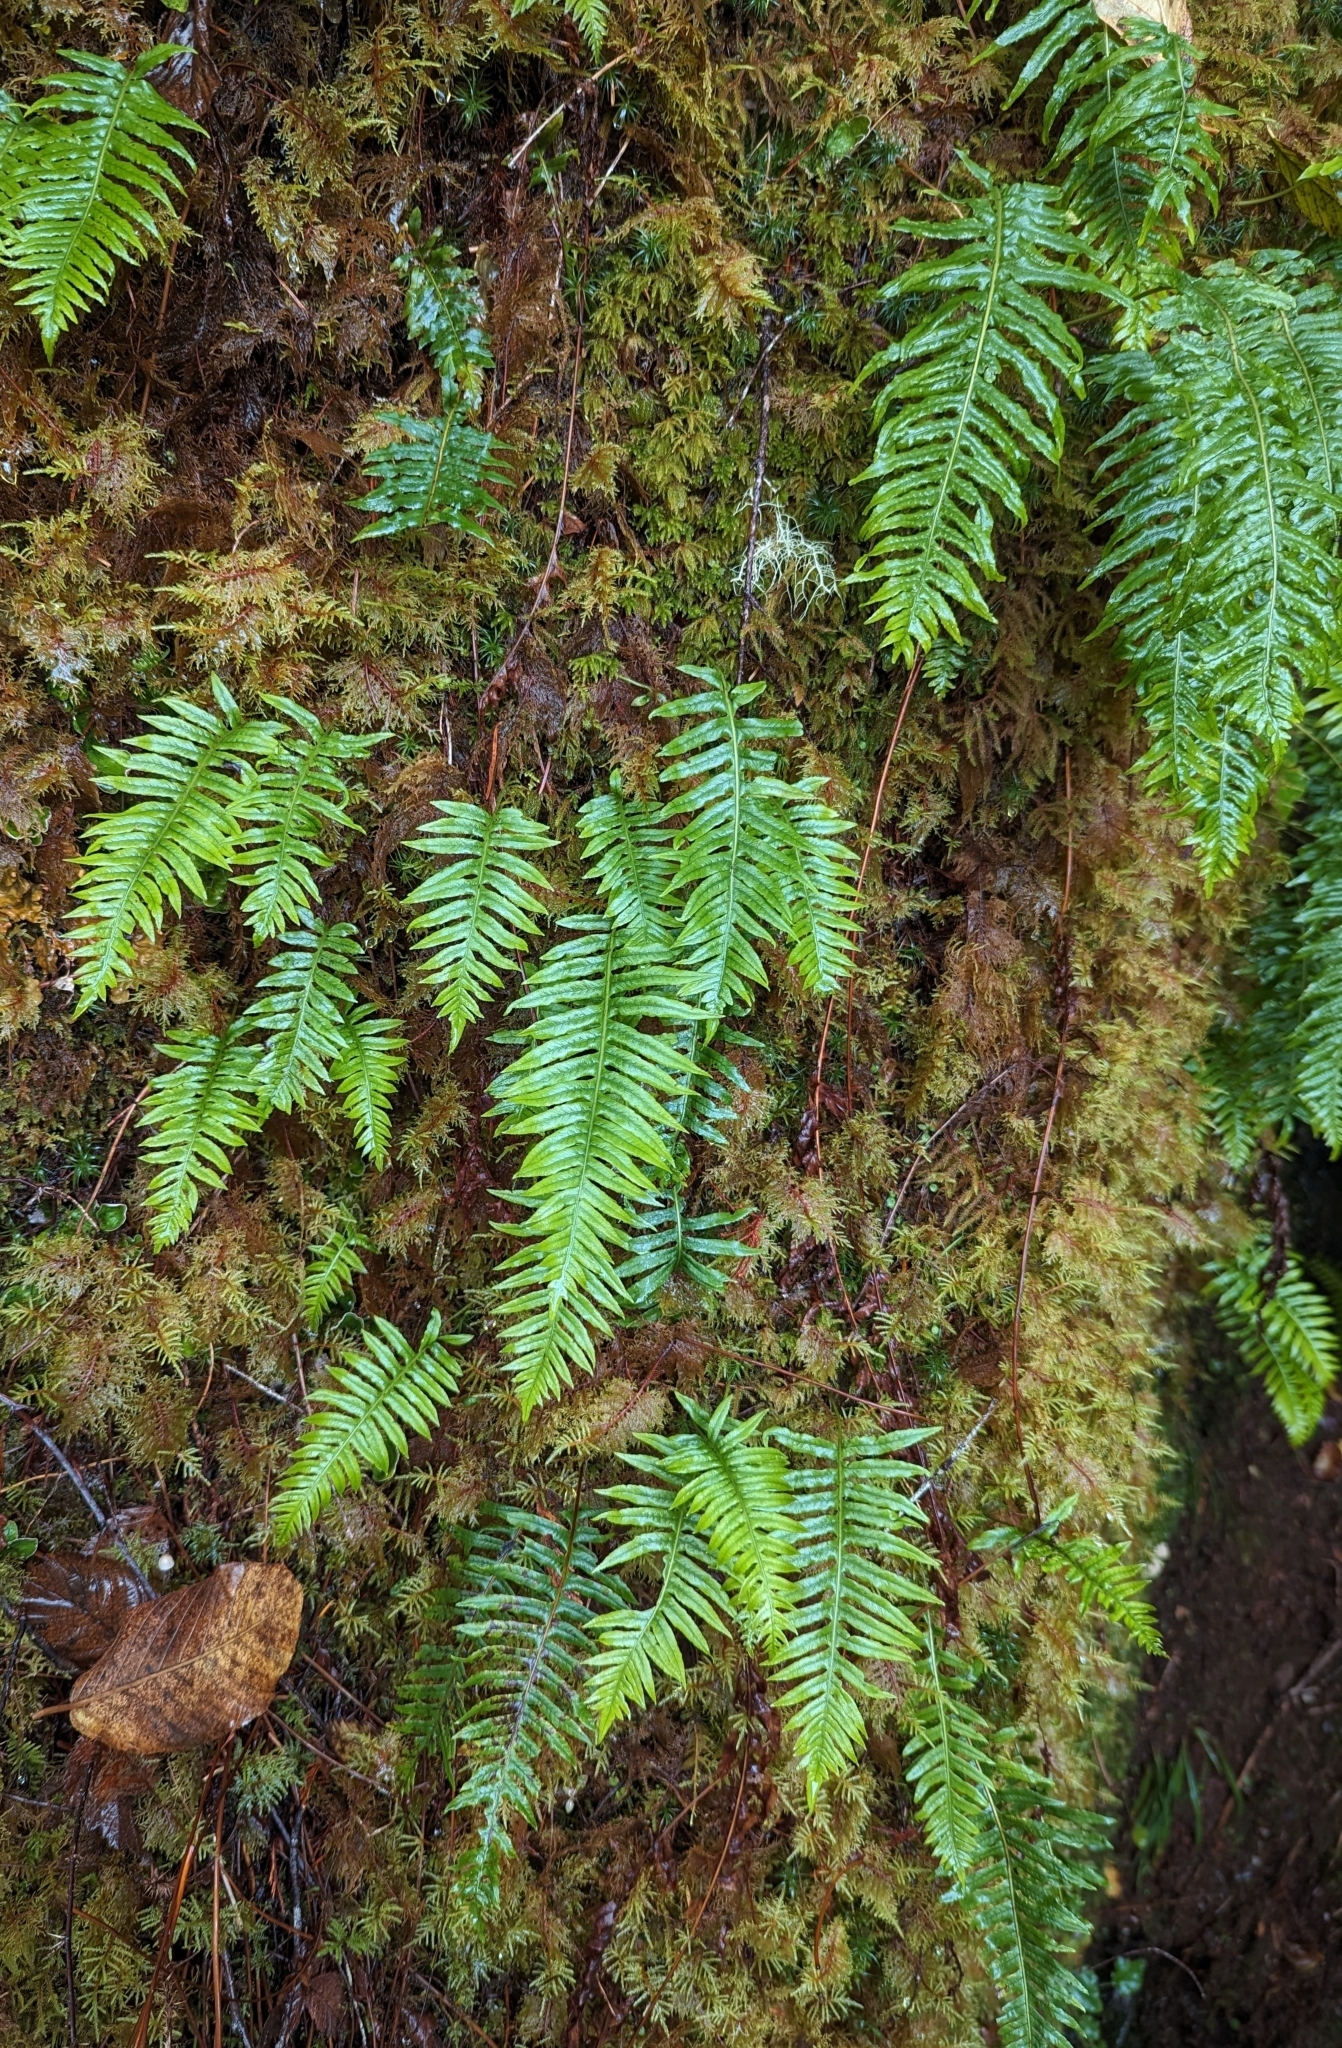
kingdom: Plantae
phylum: Tracheophyta
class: Polypodiopsida
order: Polypodiales
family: Polypodiaceae
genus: Polypodium
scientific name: Polypodium glycyrrhiza
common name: Licorice fern
